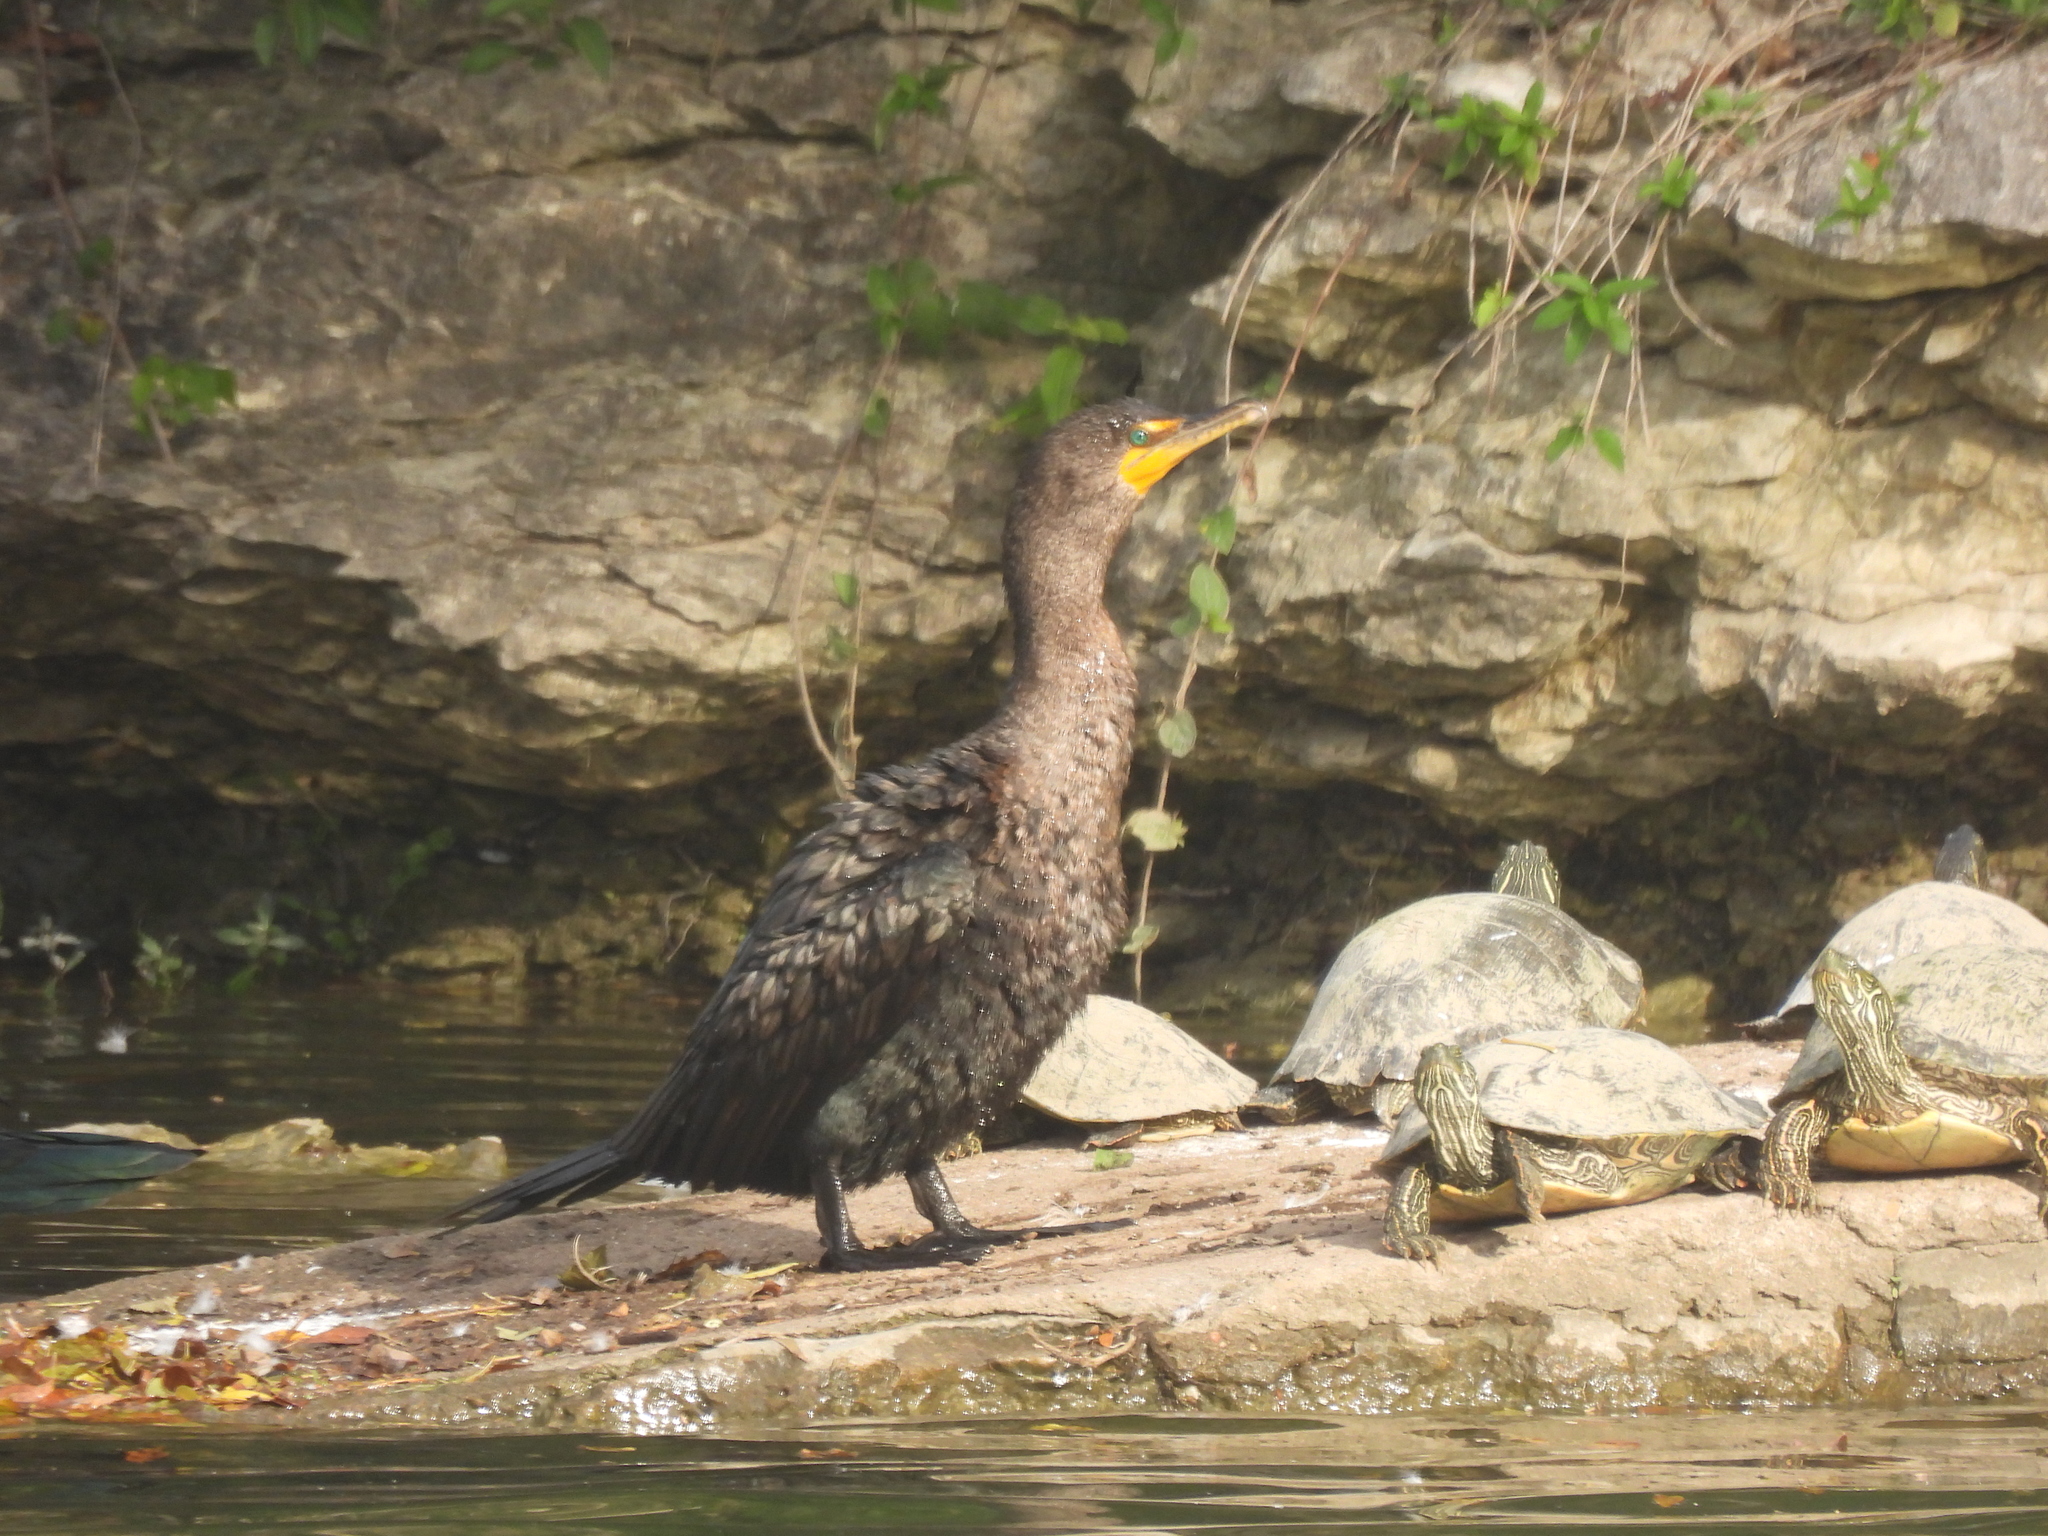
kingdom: Animalia
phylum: Chordata
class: Aves
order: Suliformes
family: Phalacrocoracidae
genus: Phalacrocorax
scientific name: Phalacrocorax auritus
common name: Double-crested cormorant
